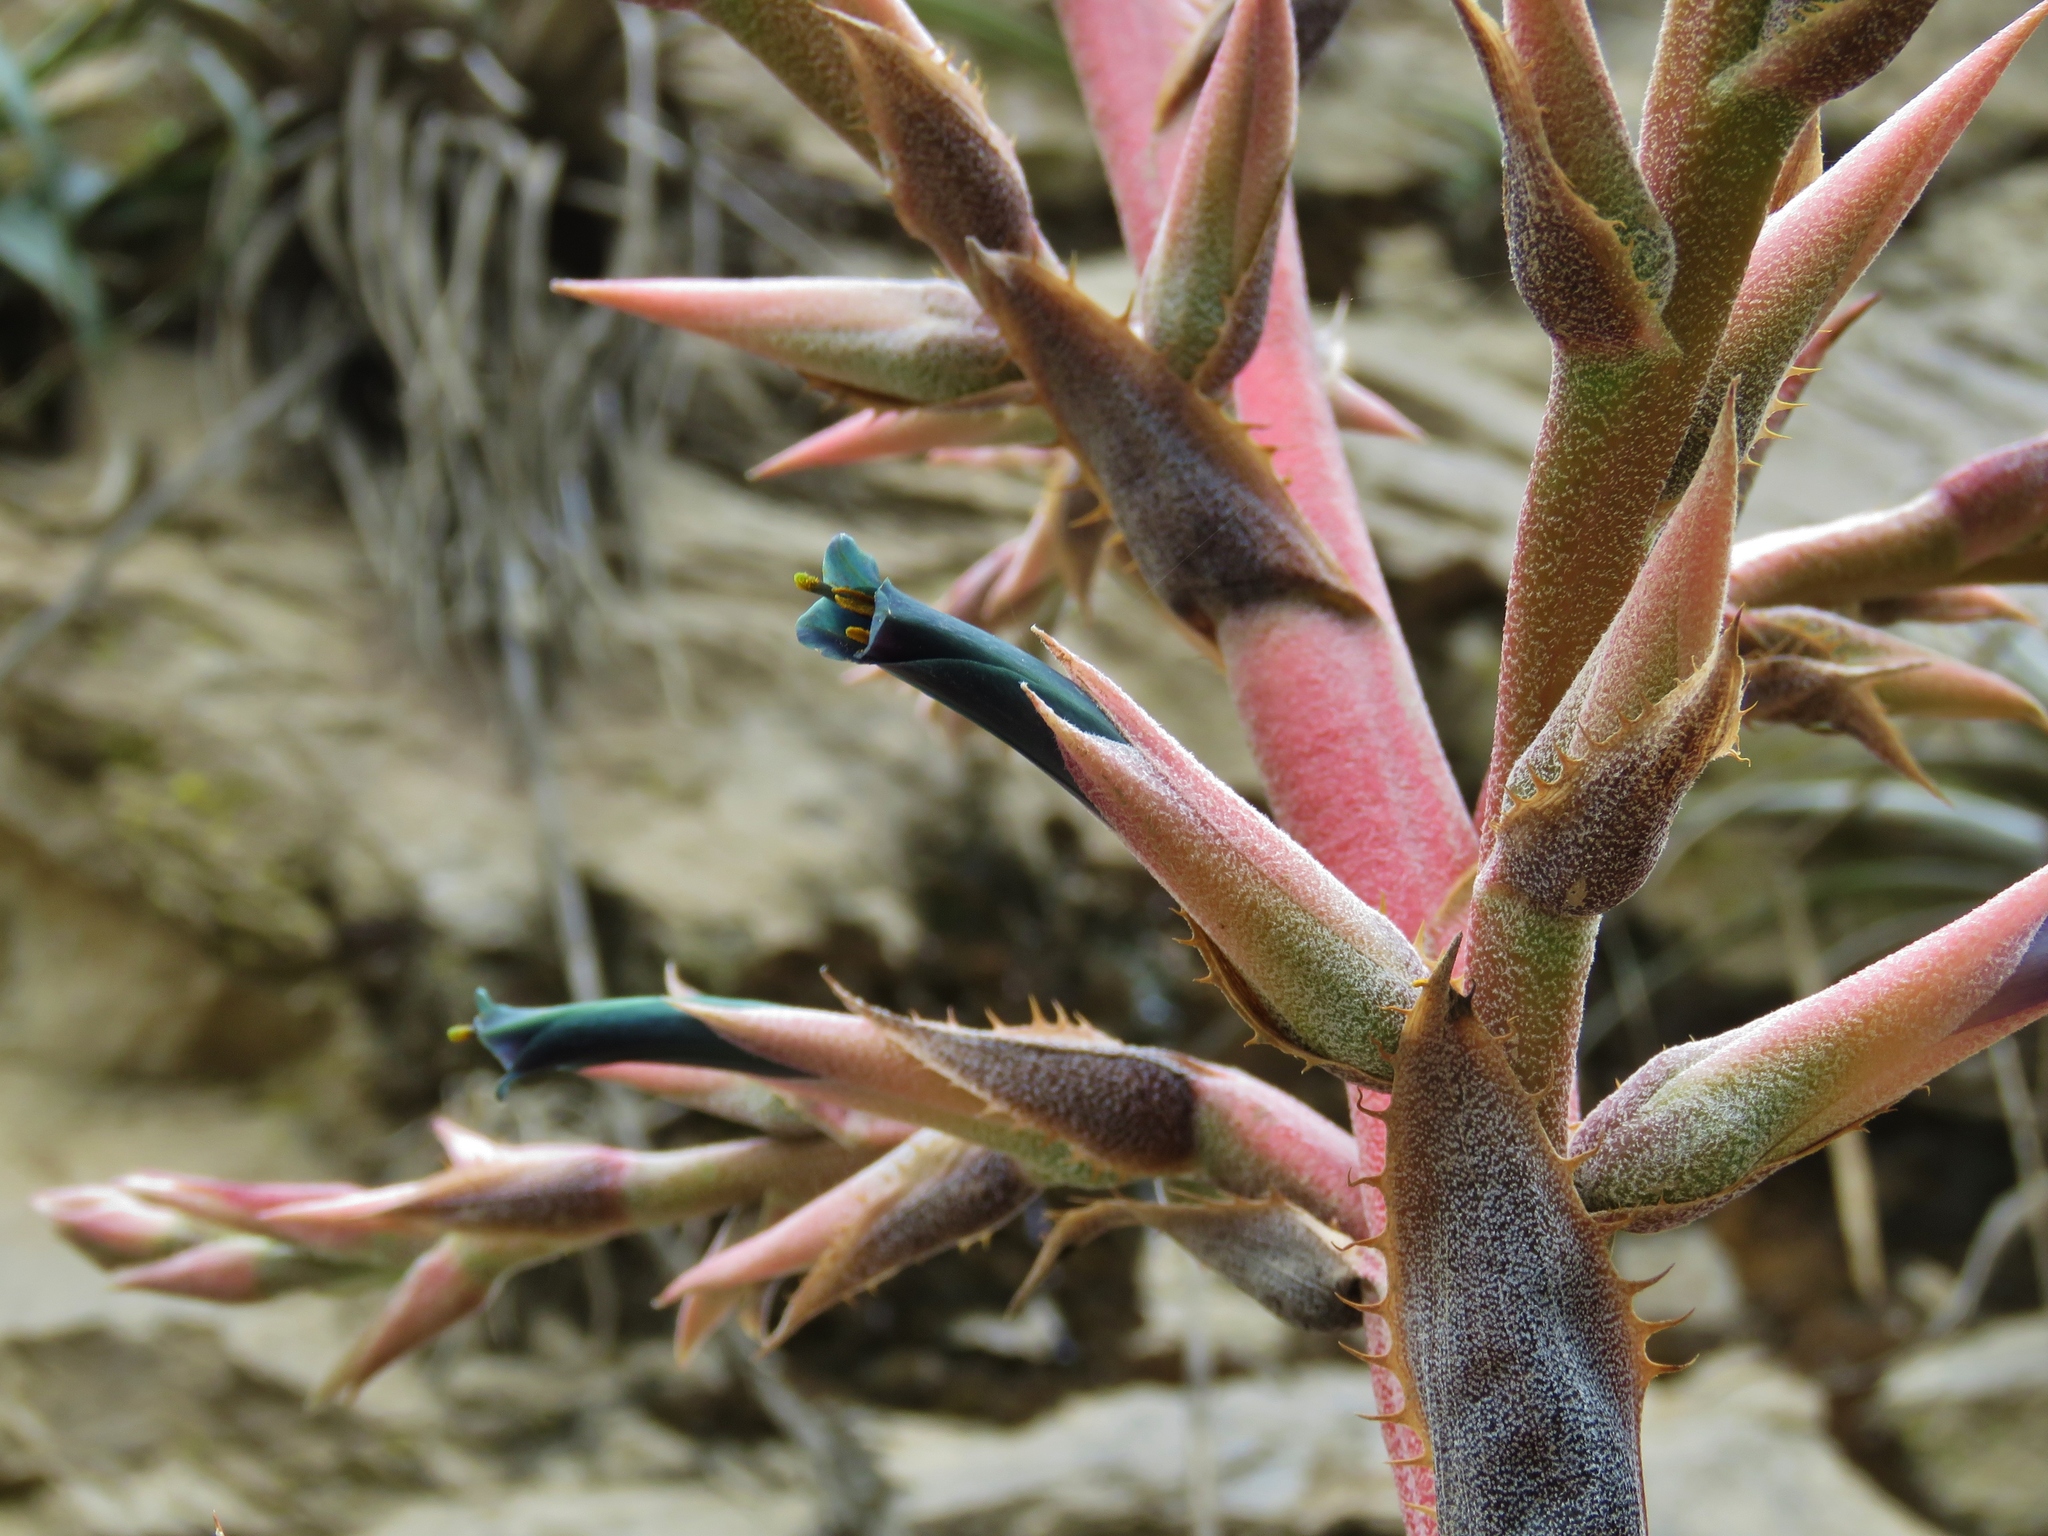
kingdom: Plantae
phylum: Tracheophyta
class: Liliopsida
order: Poales
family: Bromeliaceae
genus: Puya
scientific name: Puya roezlii
